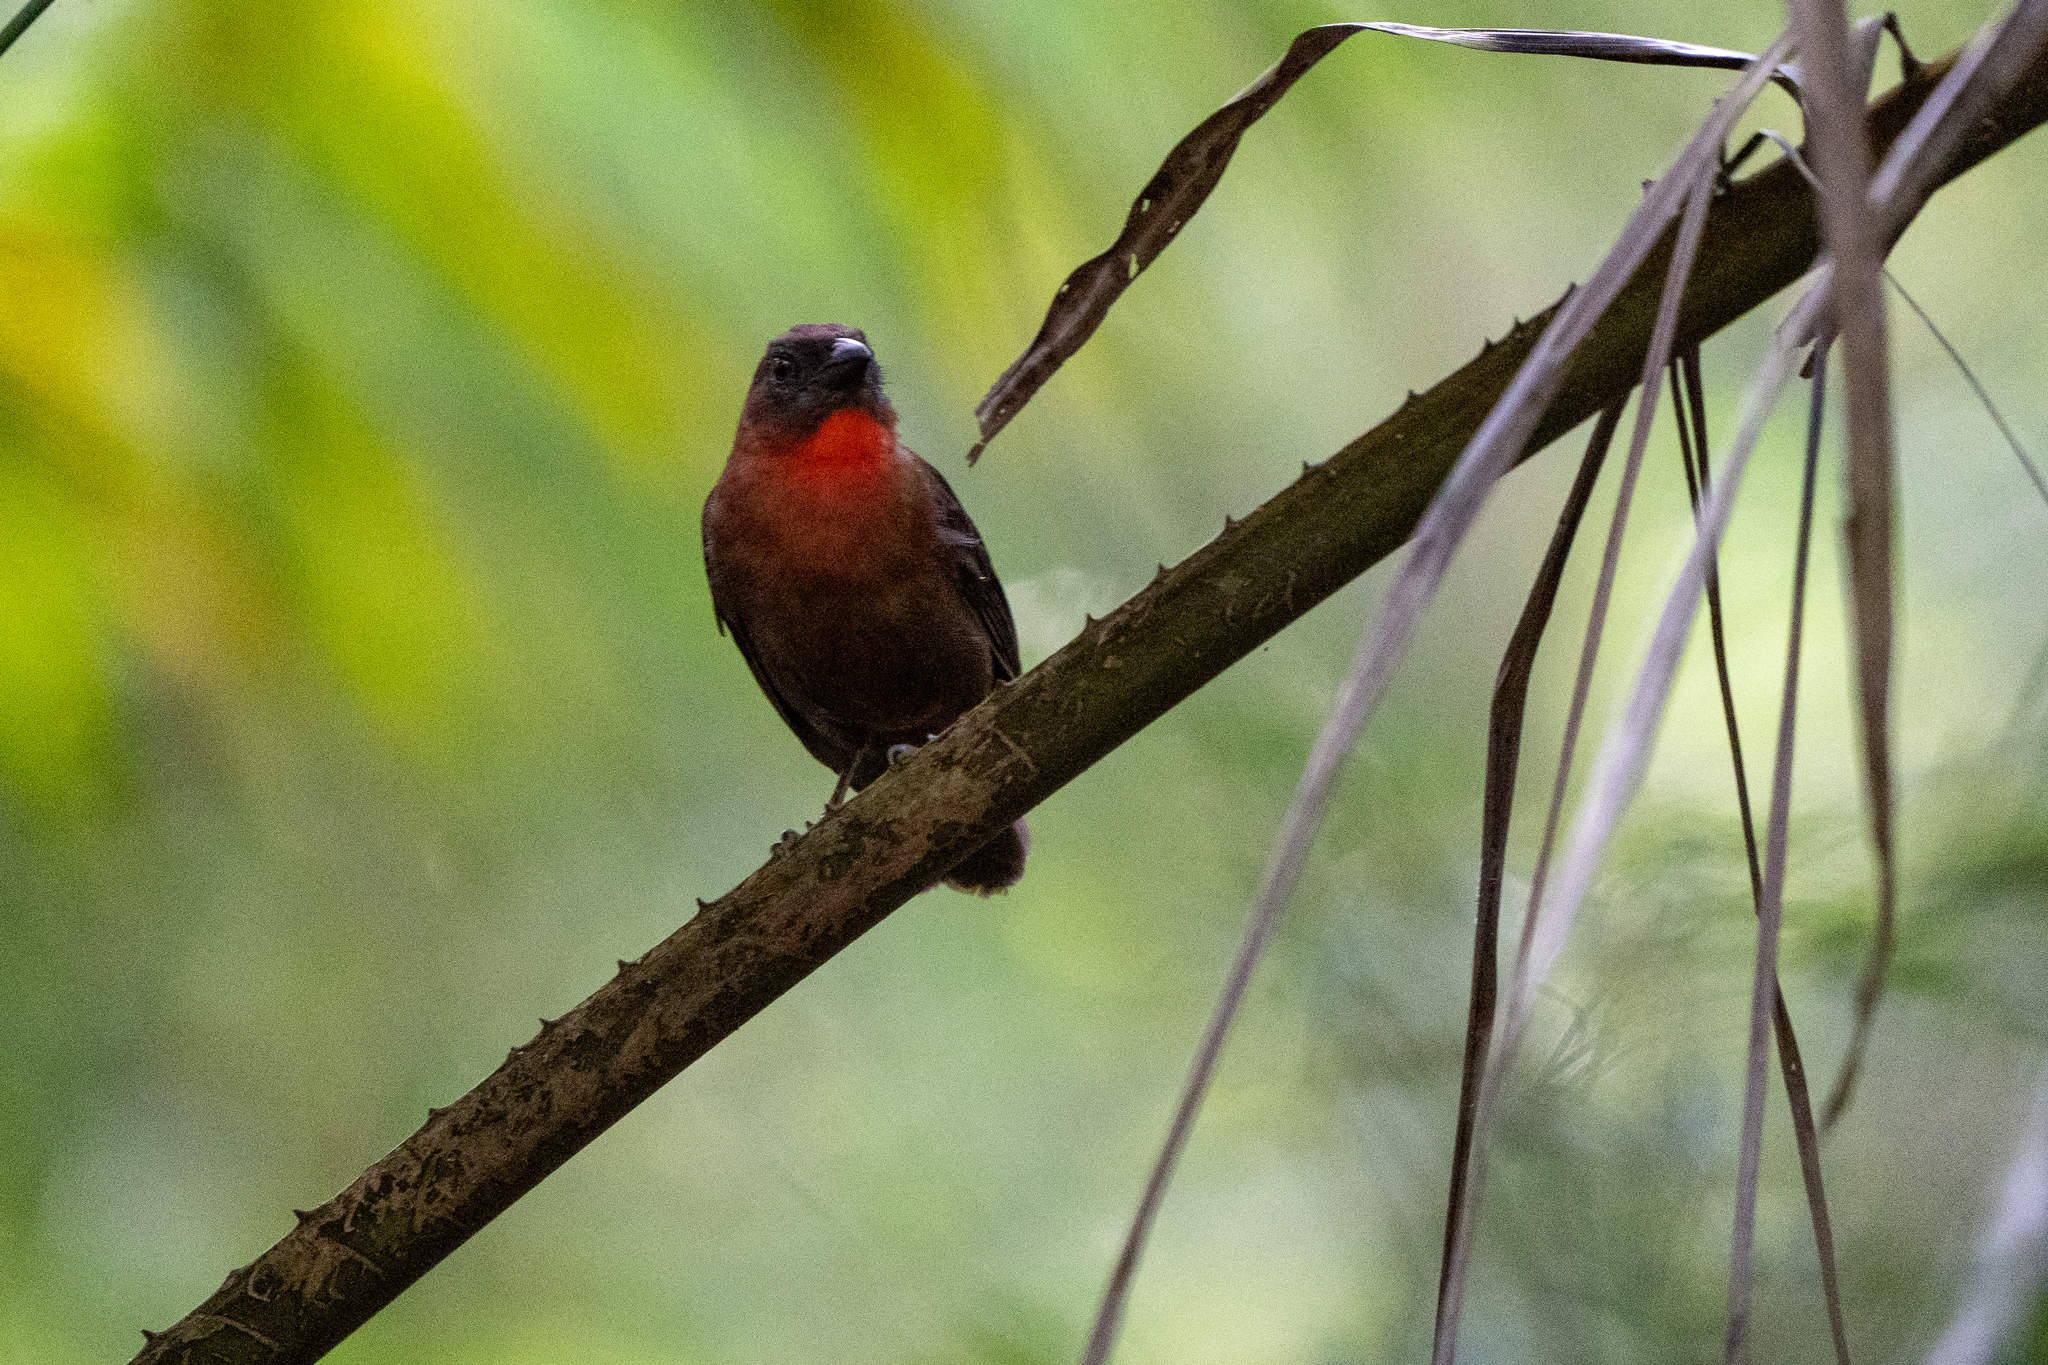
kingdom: Animalia
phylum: Chordata
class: Aves
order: Passeriformes
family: Cardinalidae
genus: Habia
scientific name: Habia fuscicauda
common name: Red-throated ant-tanager
